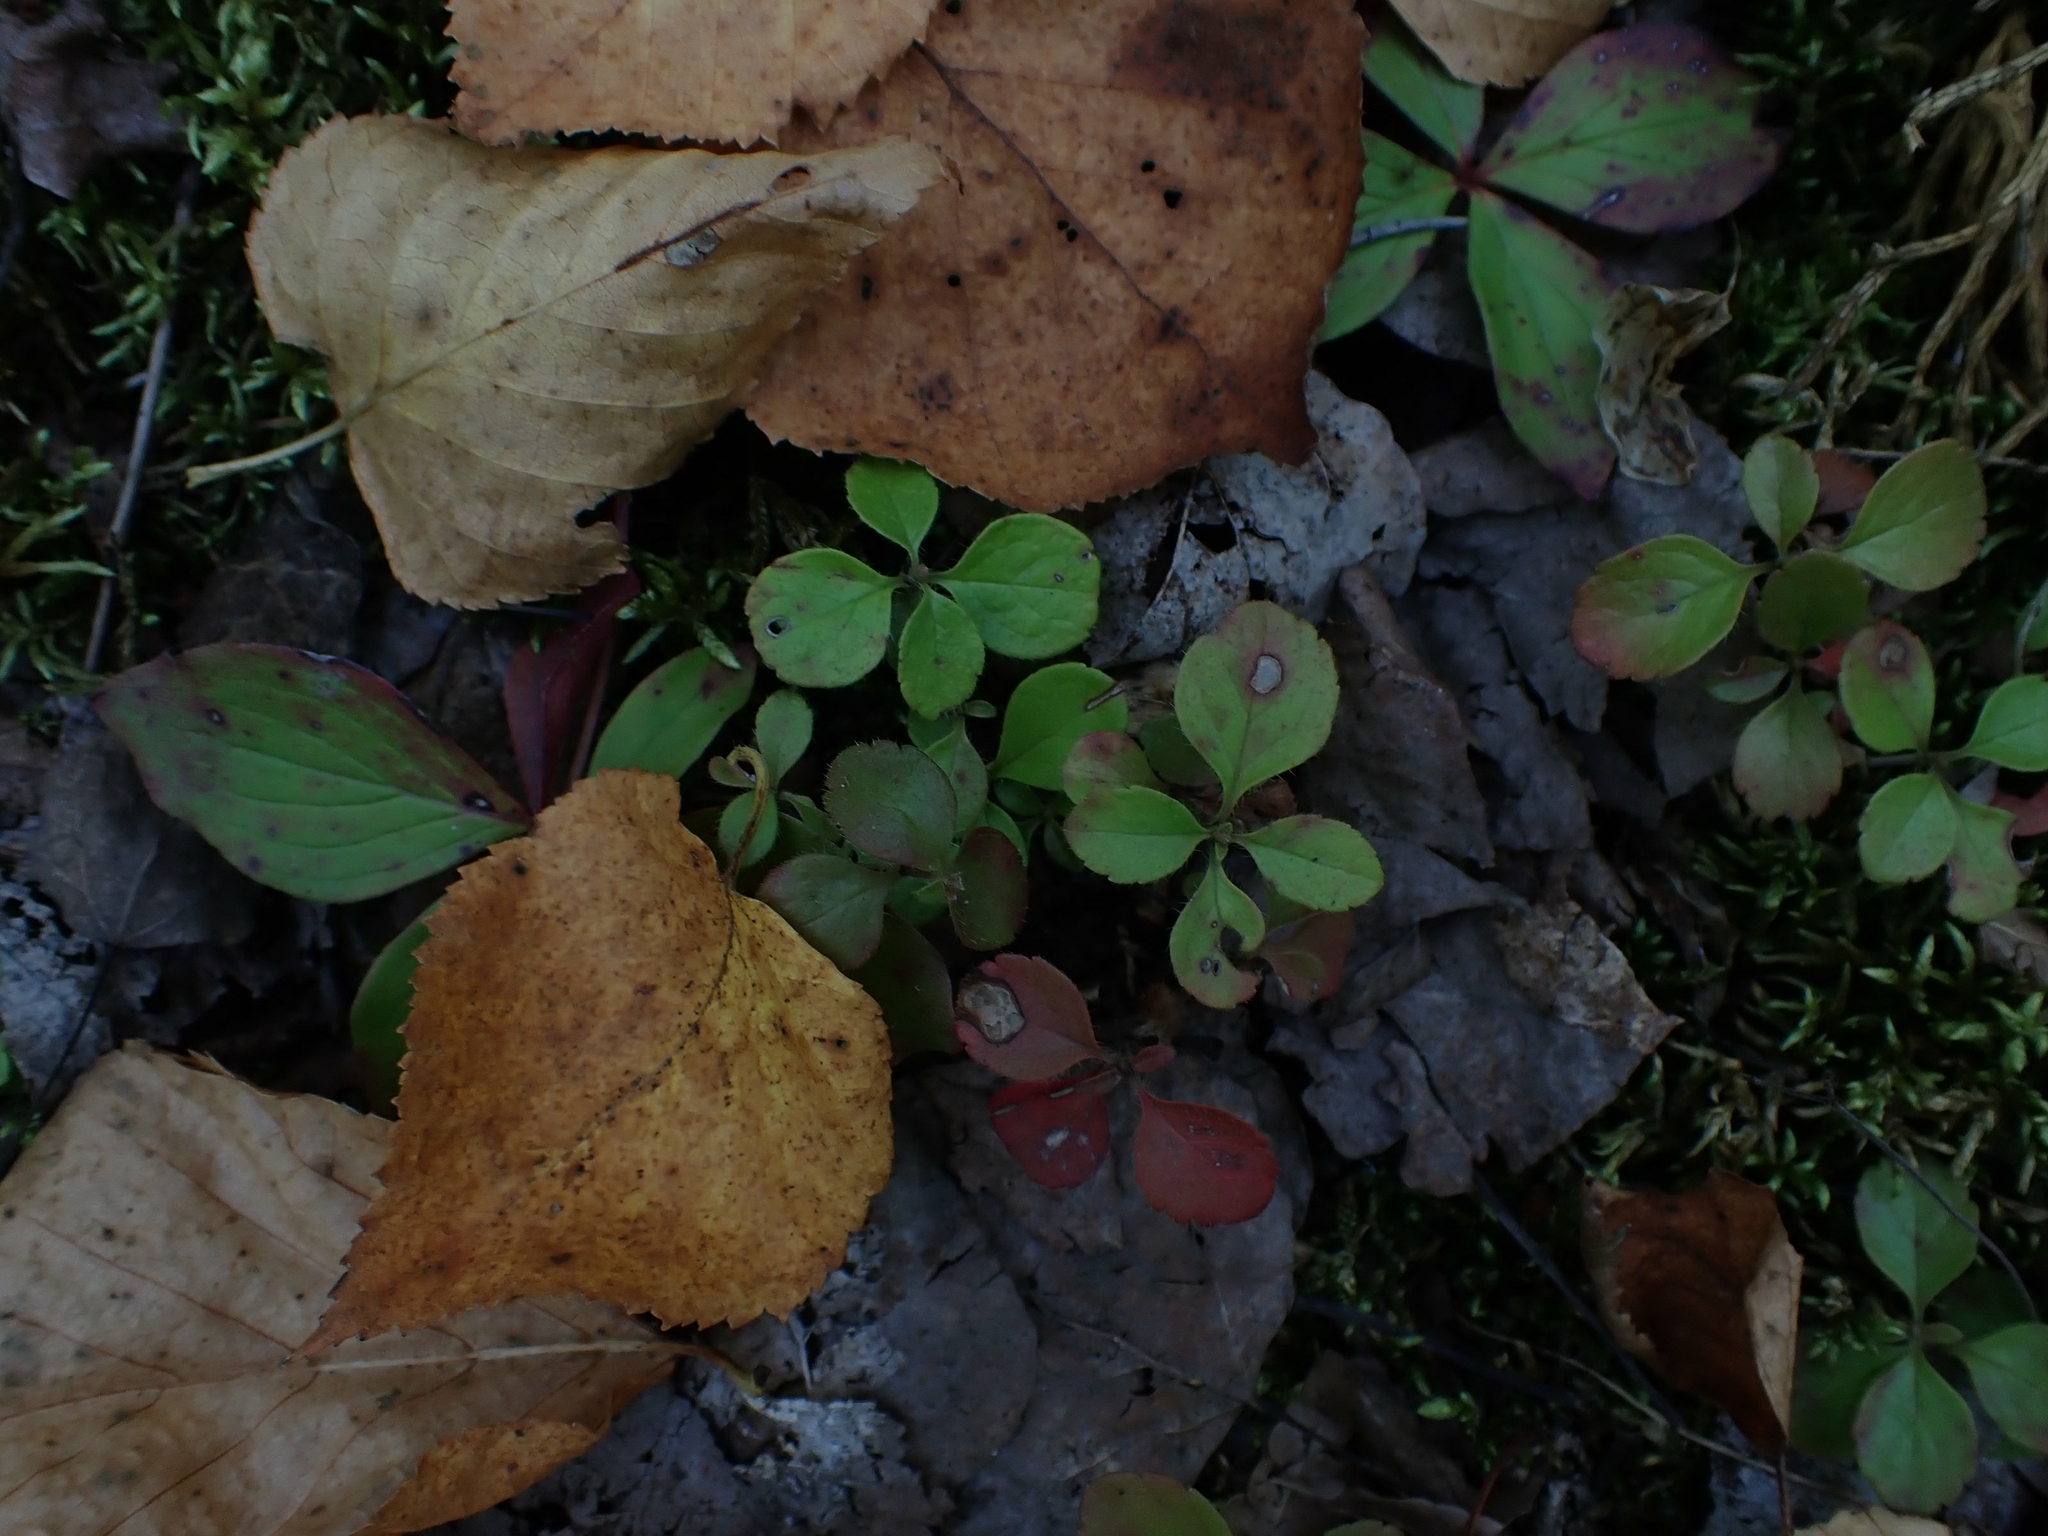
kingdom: Plantae
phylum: Tracheophyta
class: Magnoliopsida
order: Dipsacales
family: Caprifoliaceae
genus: Linnaea
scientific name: Linnaea borealis
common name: Twinflower
